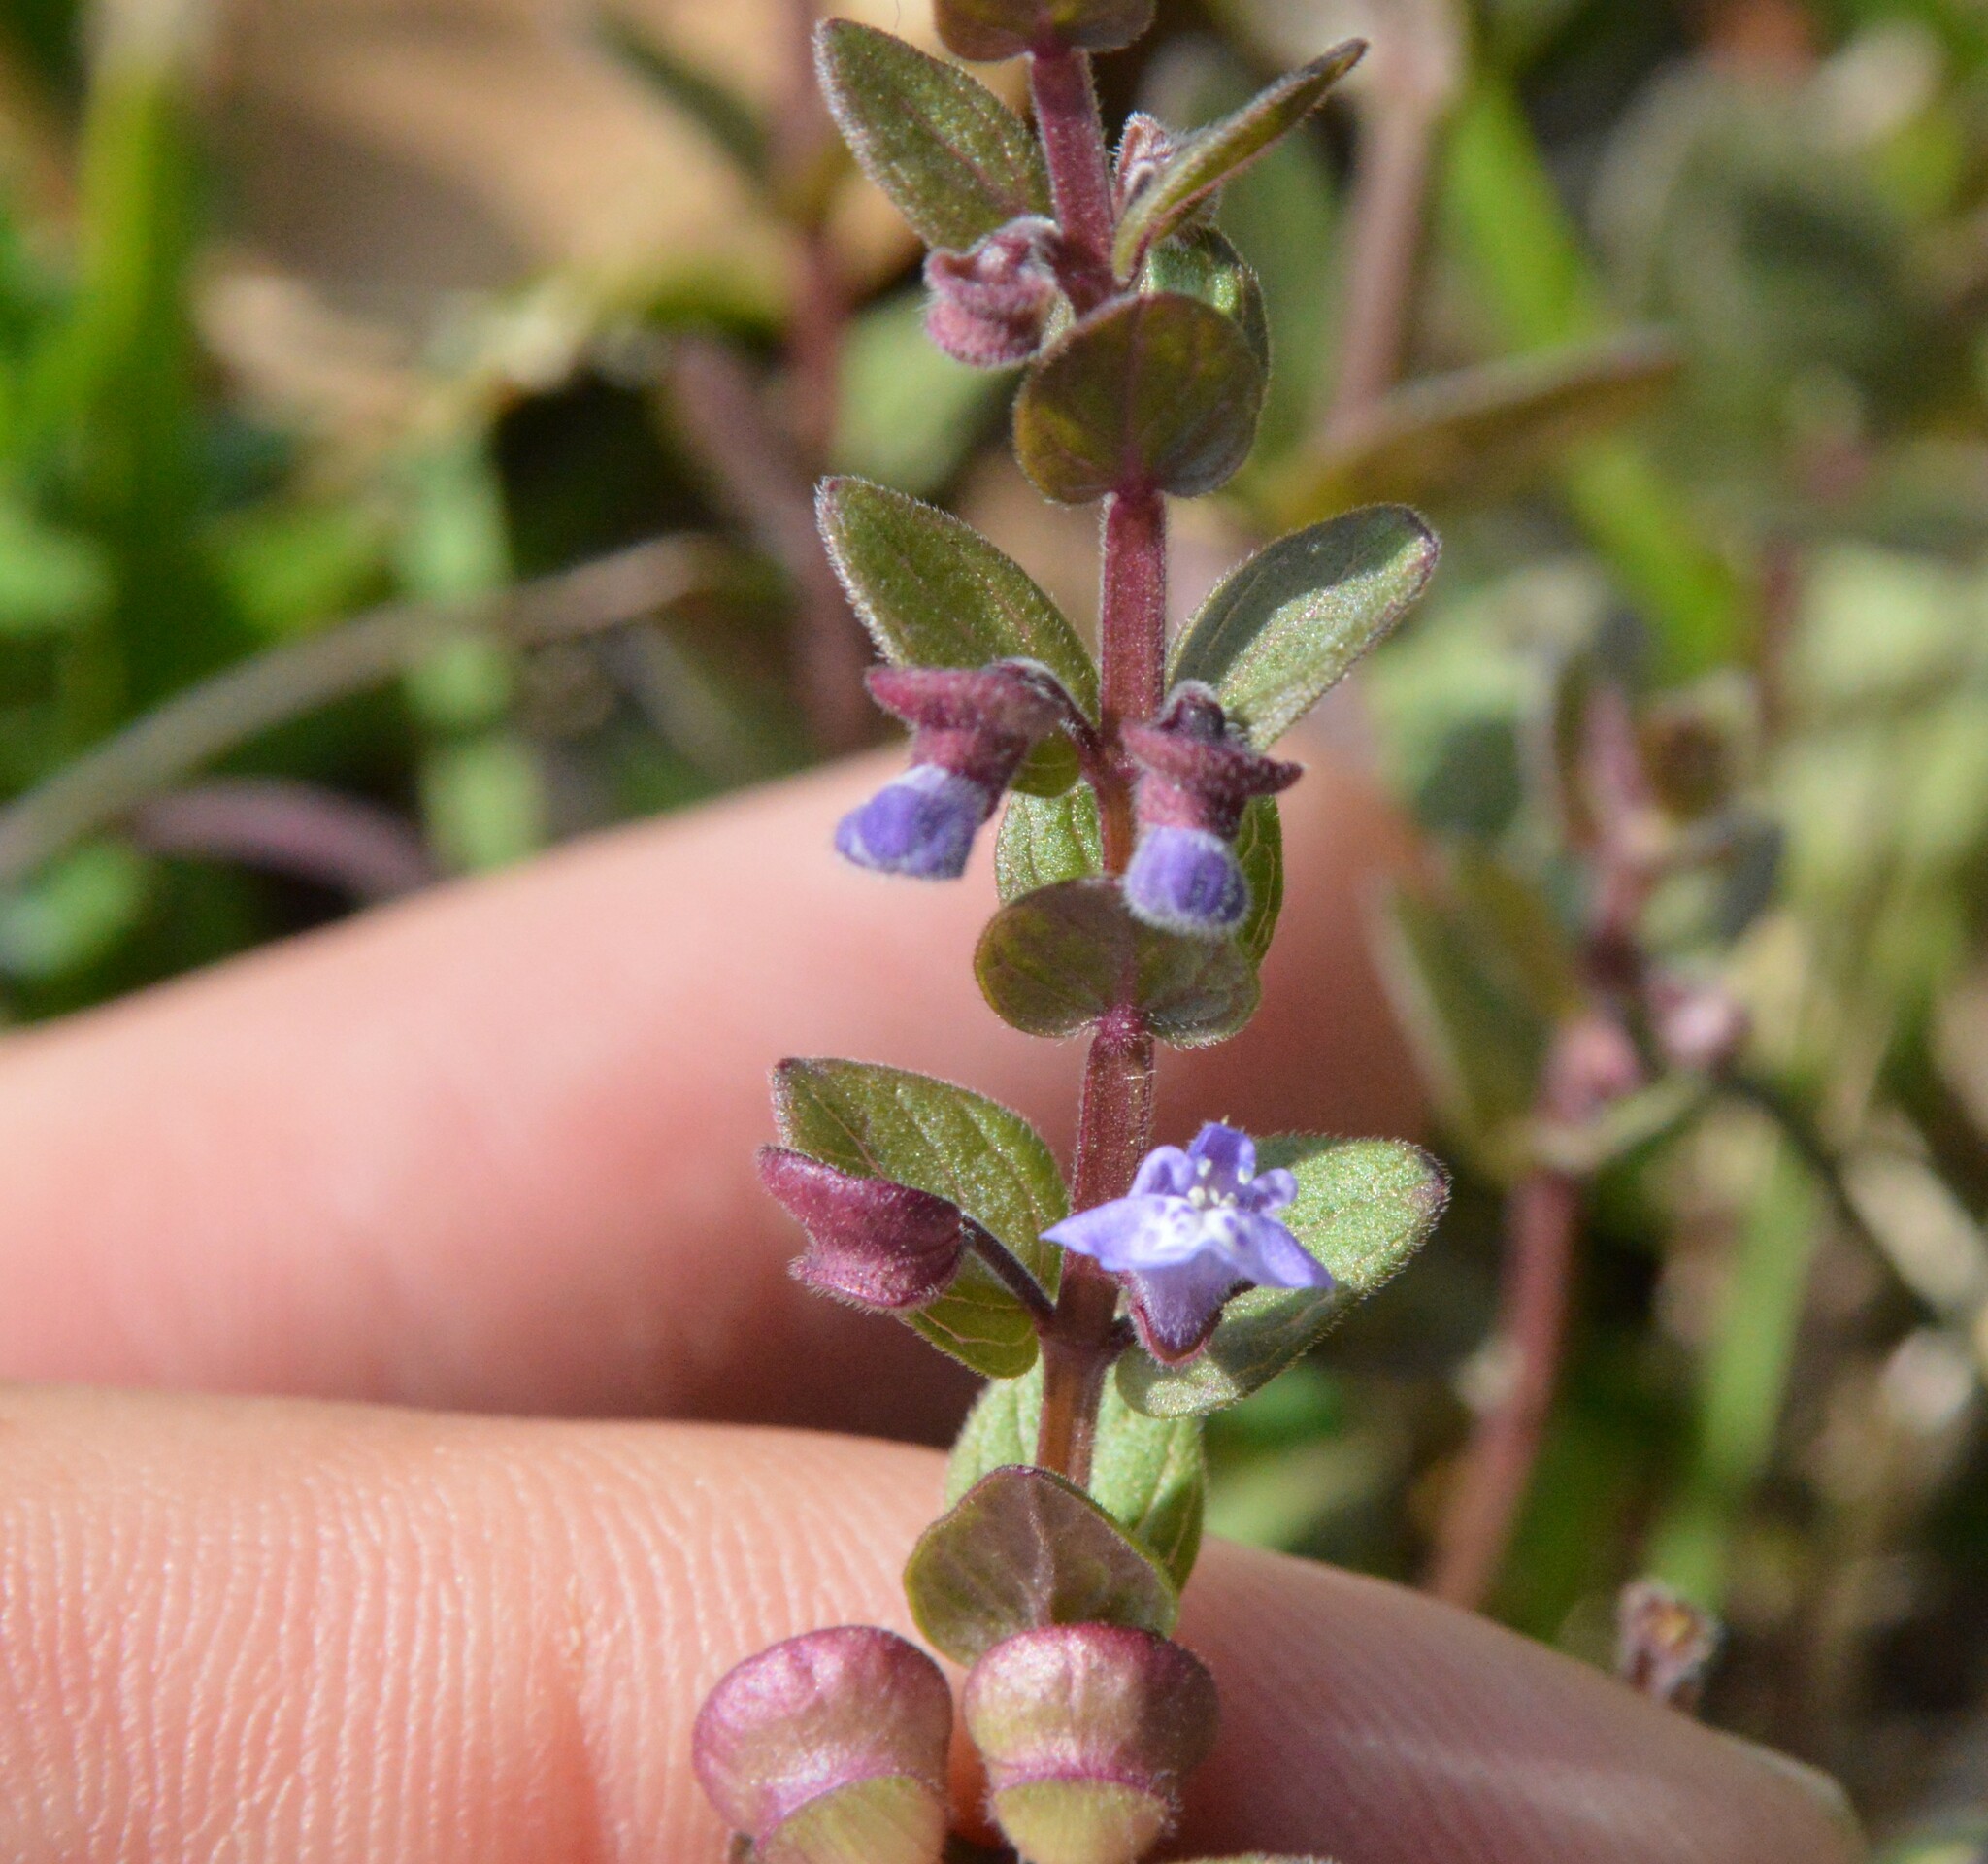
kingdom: Plantae
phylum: Tracheophyta
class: Magnoliopsida
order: Lamiales
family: Lamiaceae
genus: Scutellaria
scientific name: Scutellaria parvula
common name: Little scullcap
